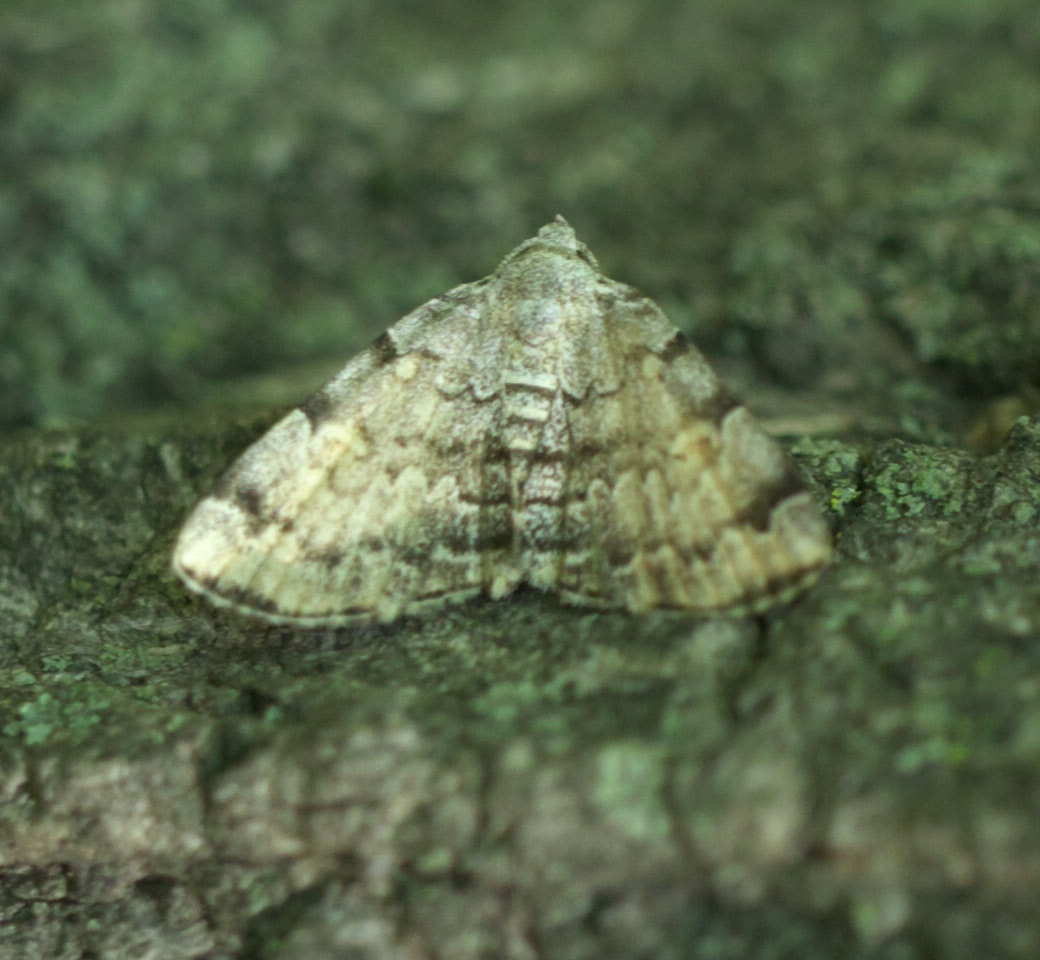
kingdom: Animalia
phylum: Arthropoda
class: Insecta
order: Lepidoptera
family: Erebidae
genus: Idia
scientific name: Idia americalis
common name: American idia moth
